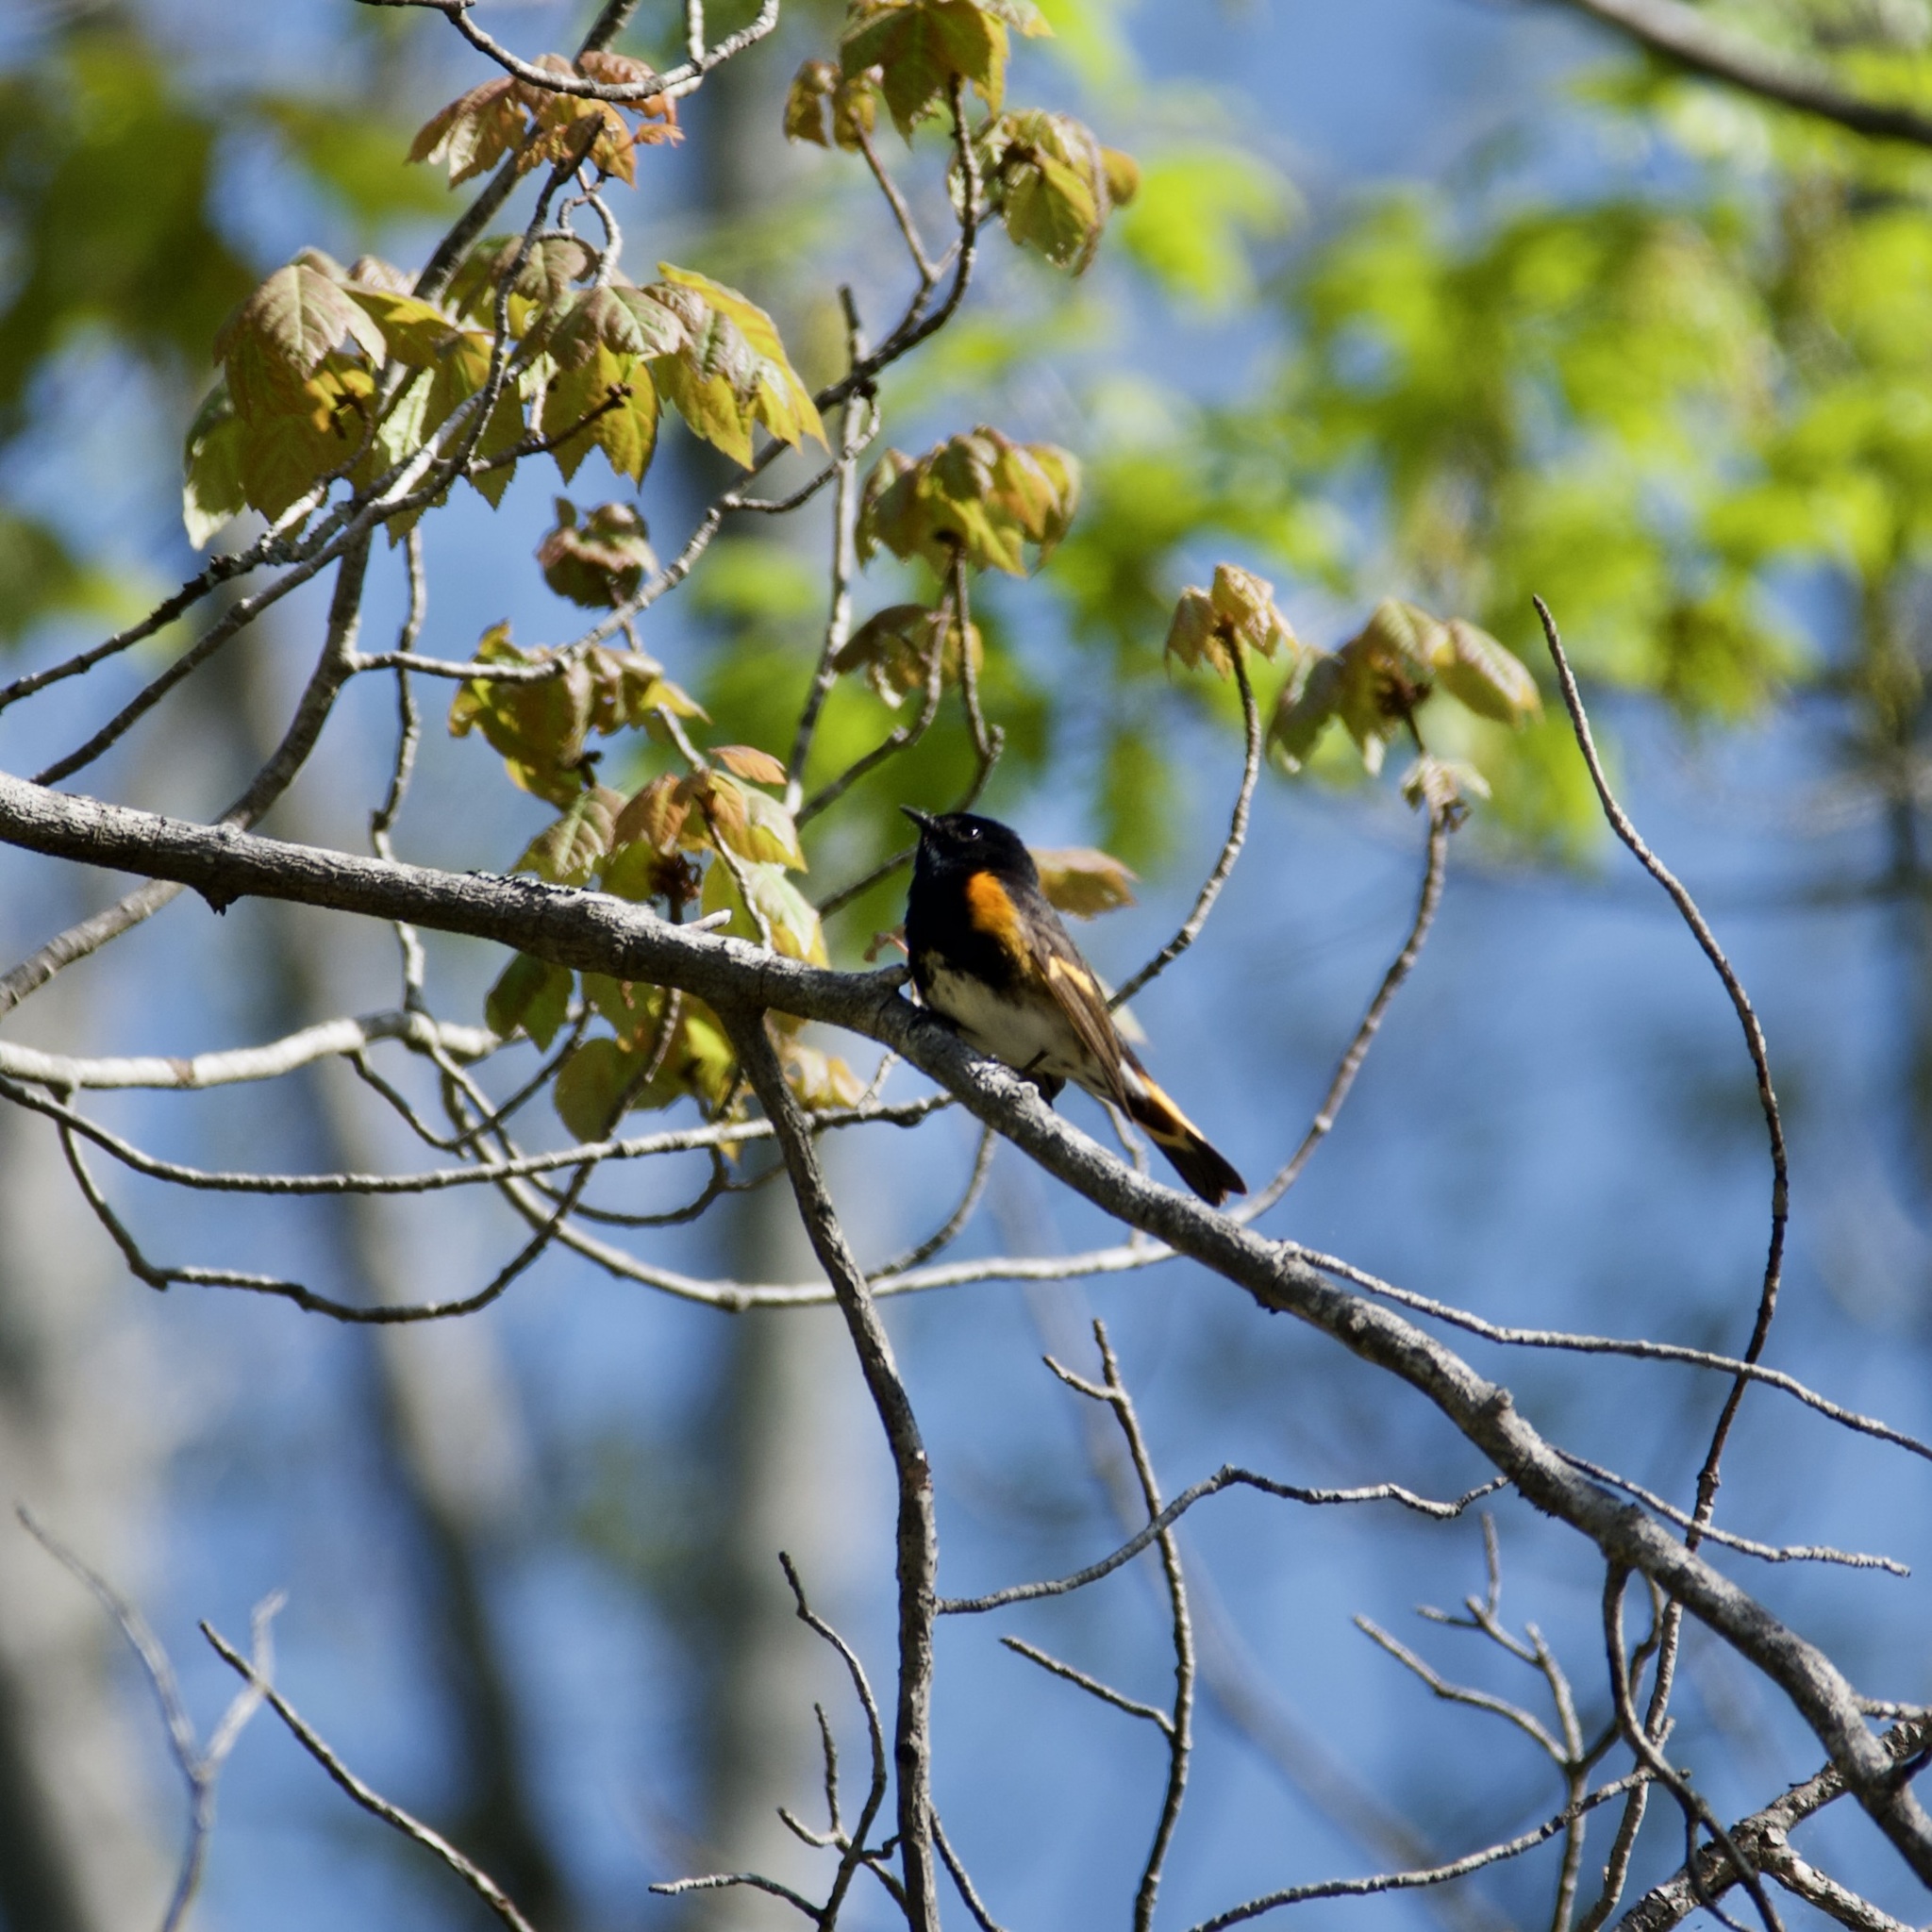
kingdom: Animalia
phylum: Chordata
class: Aves
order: Passeriformes
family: Parulidae
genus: Setophaga
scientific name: Setophaga ruticilla
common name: American redstart
